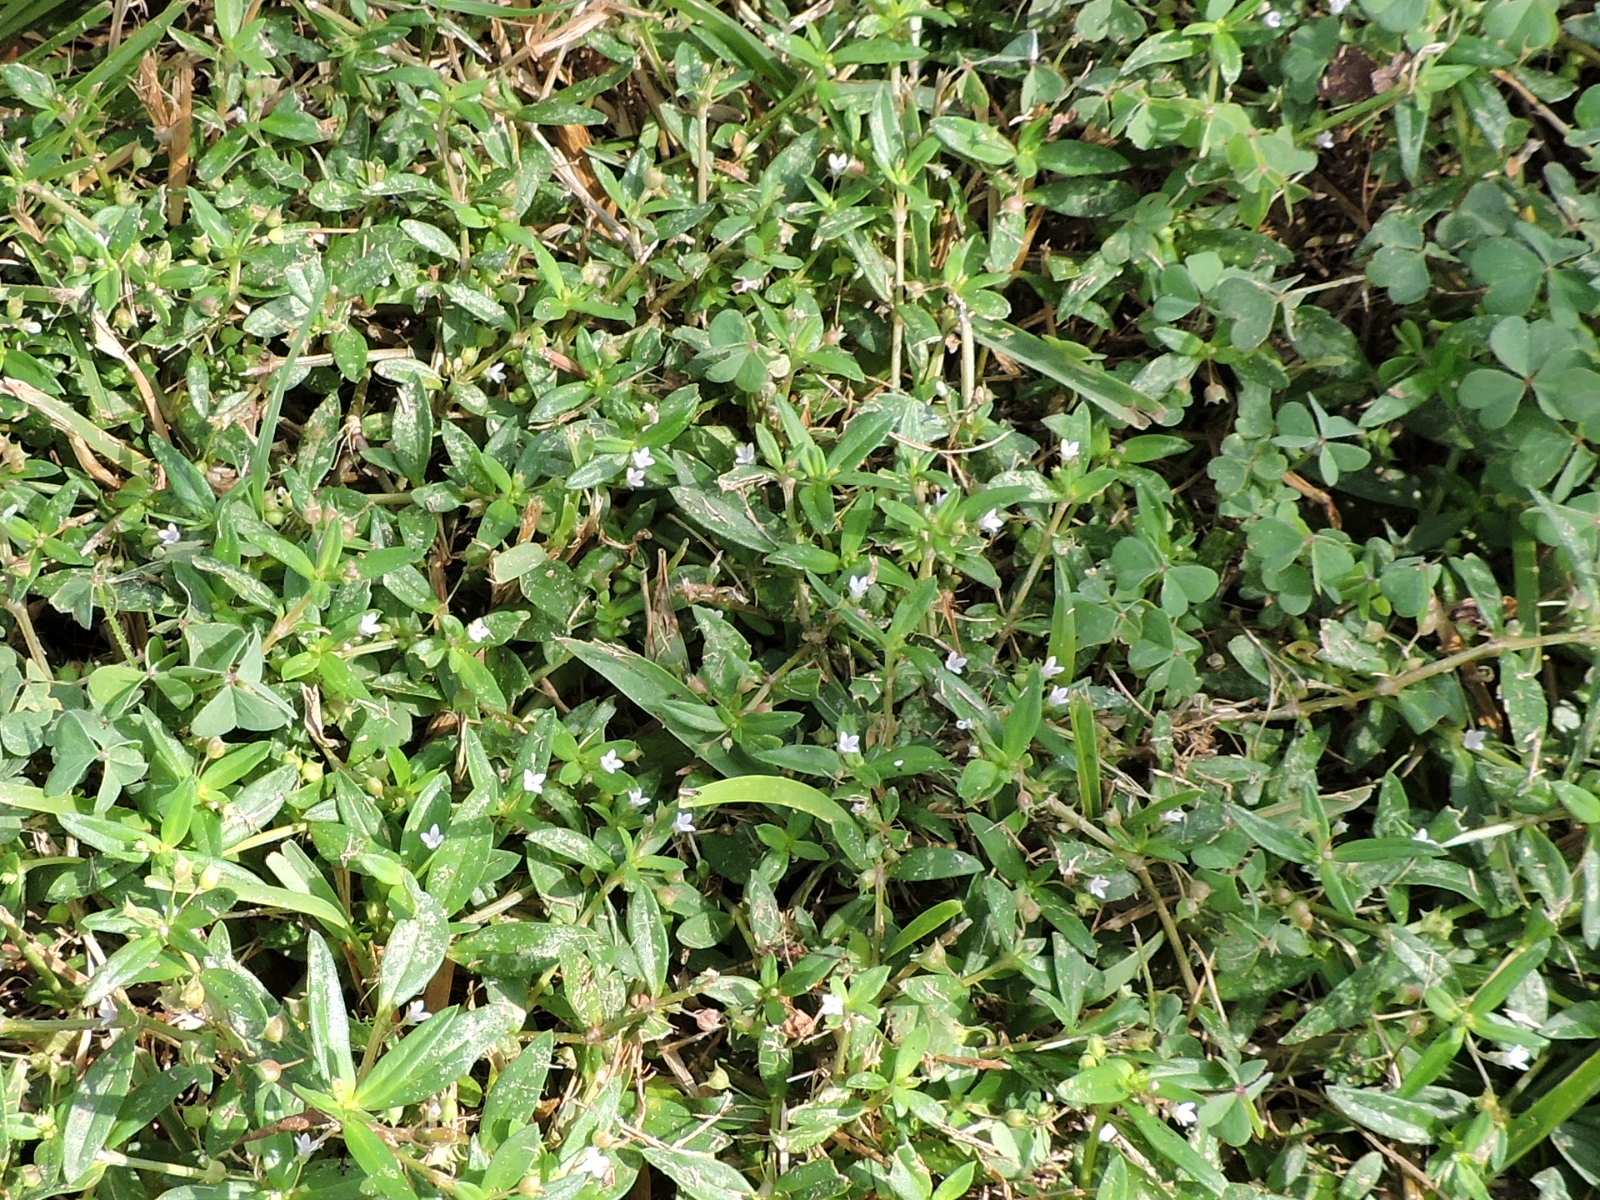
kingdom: Plantae
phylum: Tracheophyta
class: Magnoliopsida
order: Gentianales
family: Rubiaceae
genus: Oldenlandia
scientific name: Oldenlandia corymbosa
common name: Flat-top mille graines
